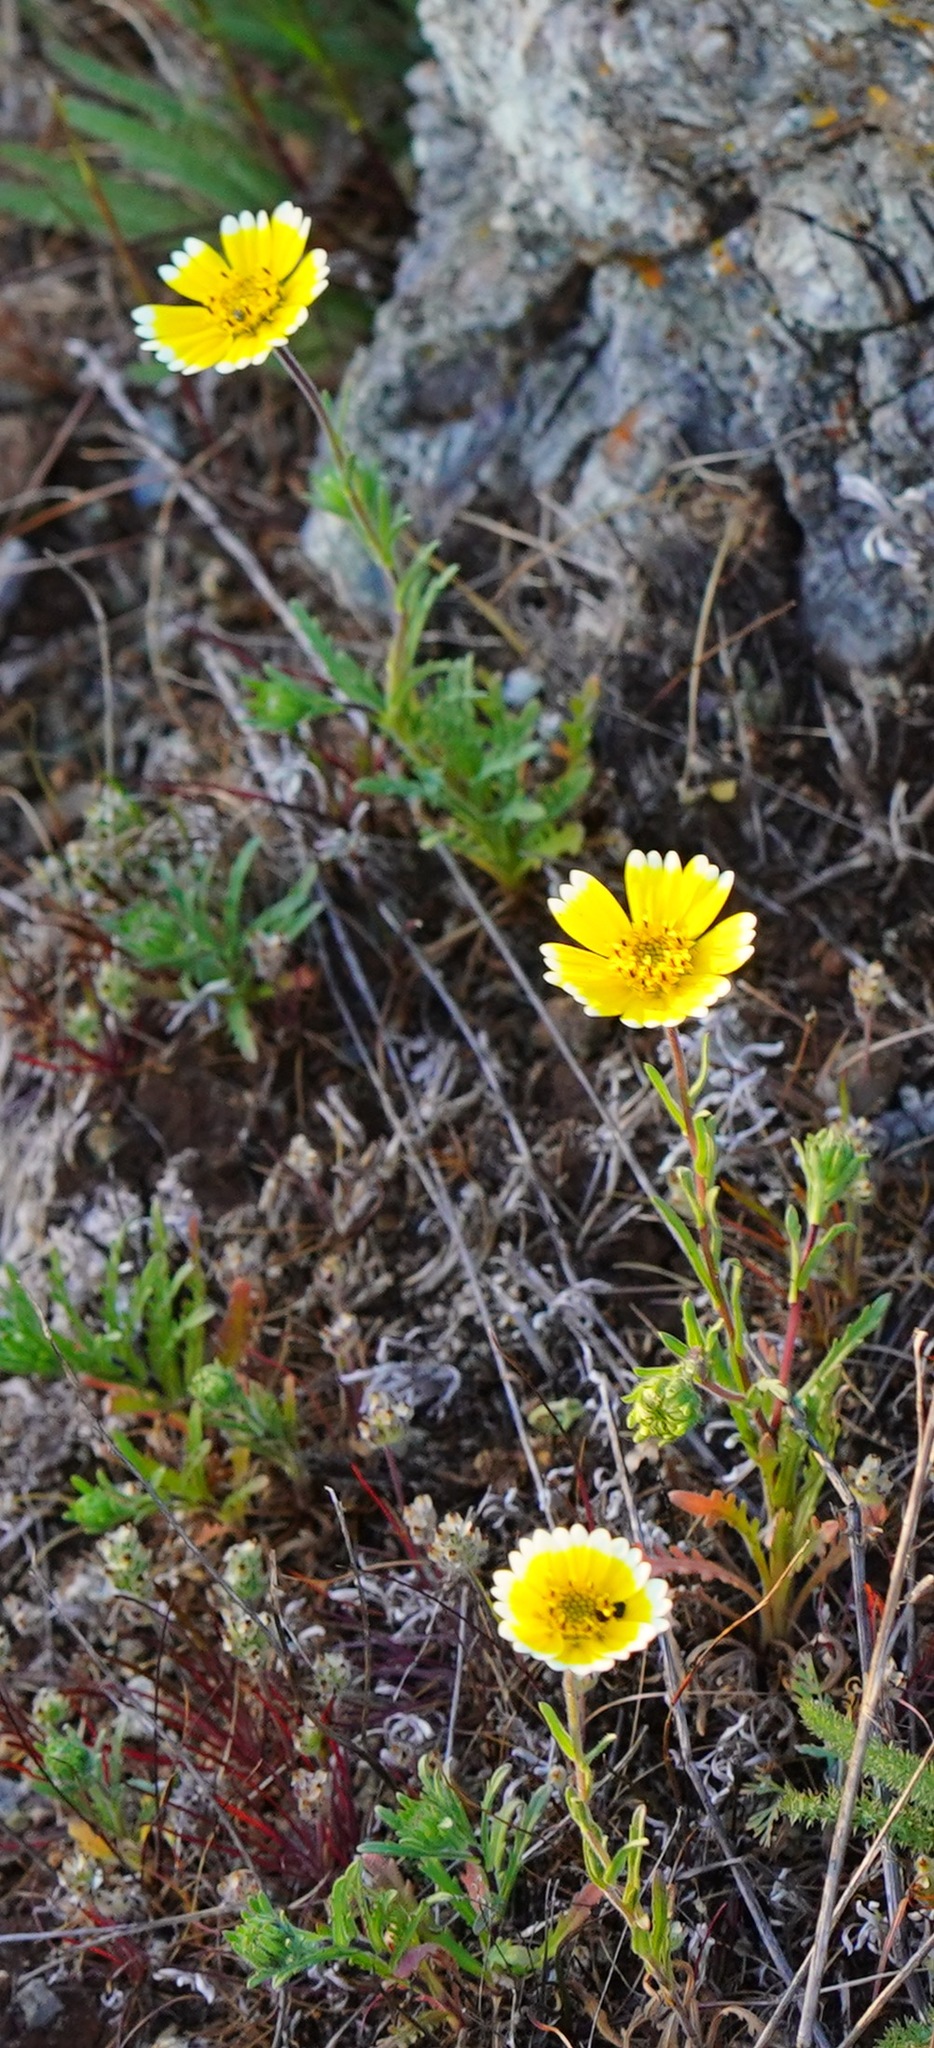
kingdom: Plantae
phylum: Tracheophyta
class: Magnoliopsida
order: Asterales
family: Asteraceae
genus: Layia
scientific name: Layia platyglossa
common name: Tidy-tips
